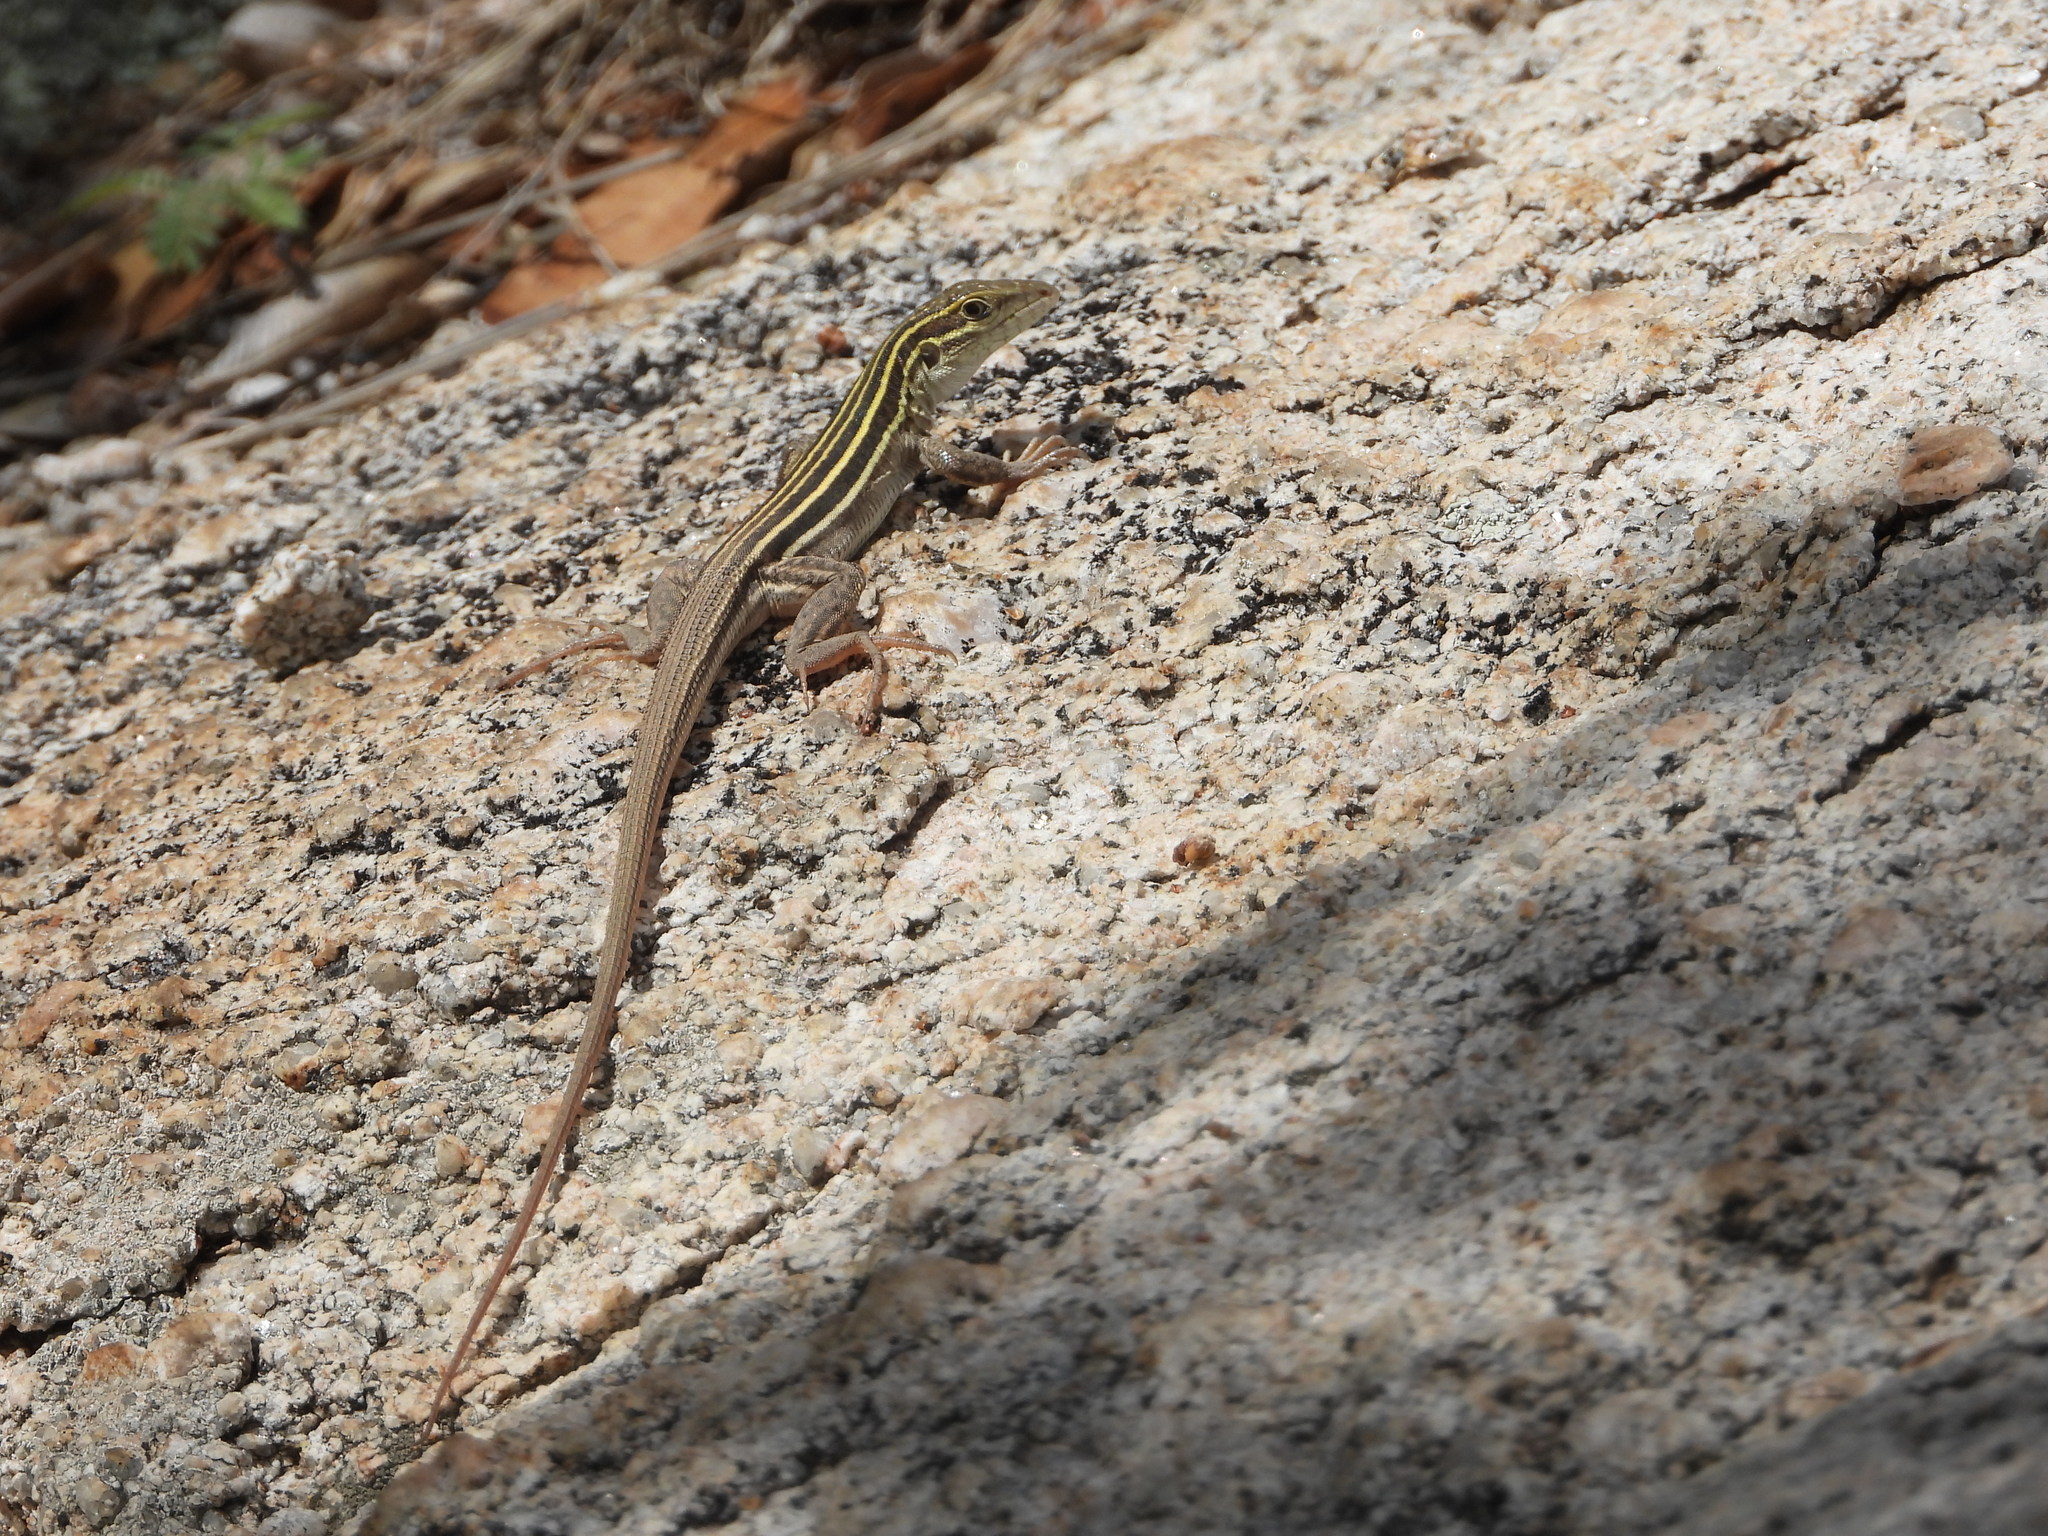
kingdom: Animalia
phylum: Chordata
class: Squamata
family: Teiidae
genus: Aspidoscelis
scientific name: Aspidoscelis sonorae
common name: Sonoran spotted whiptail
